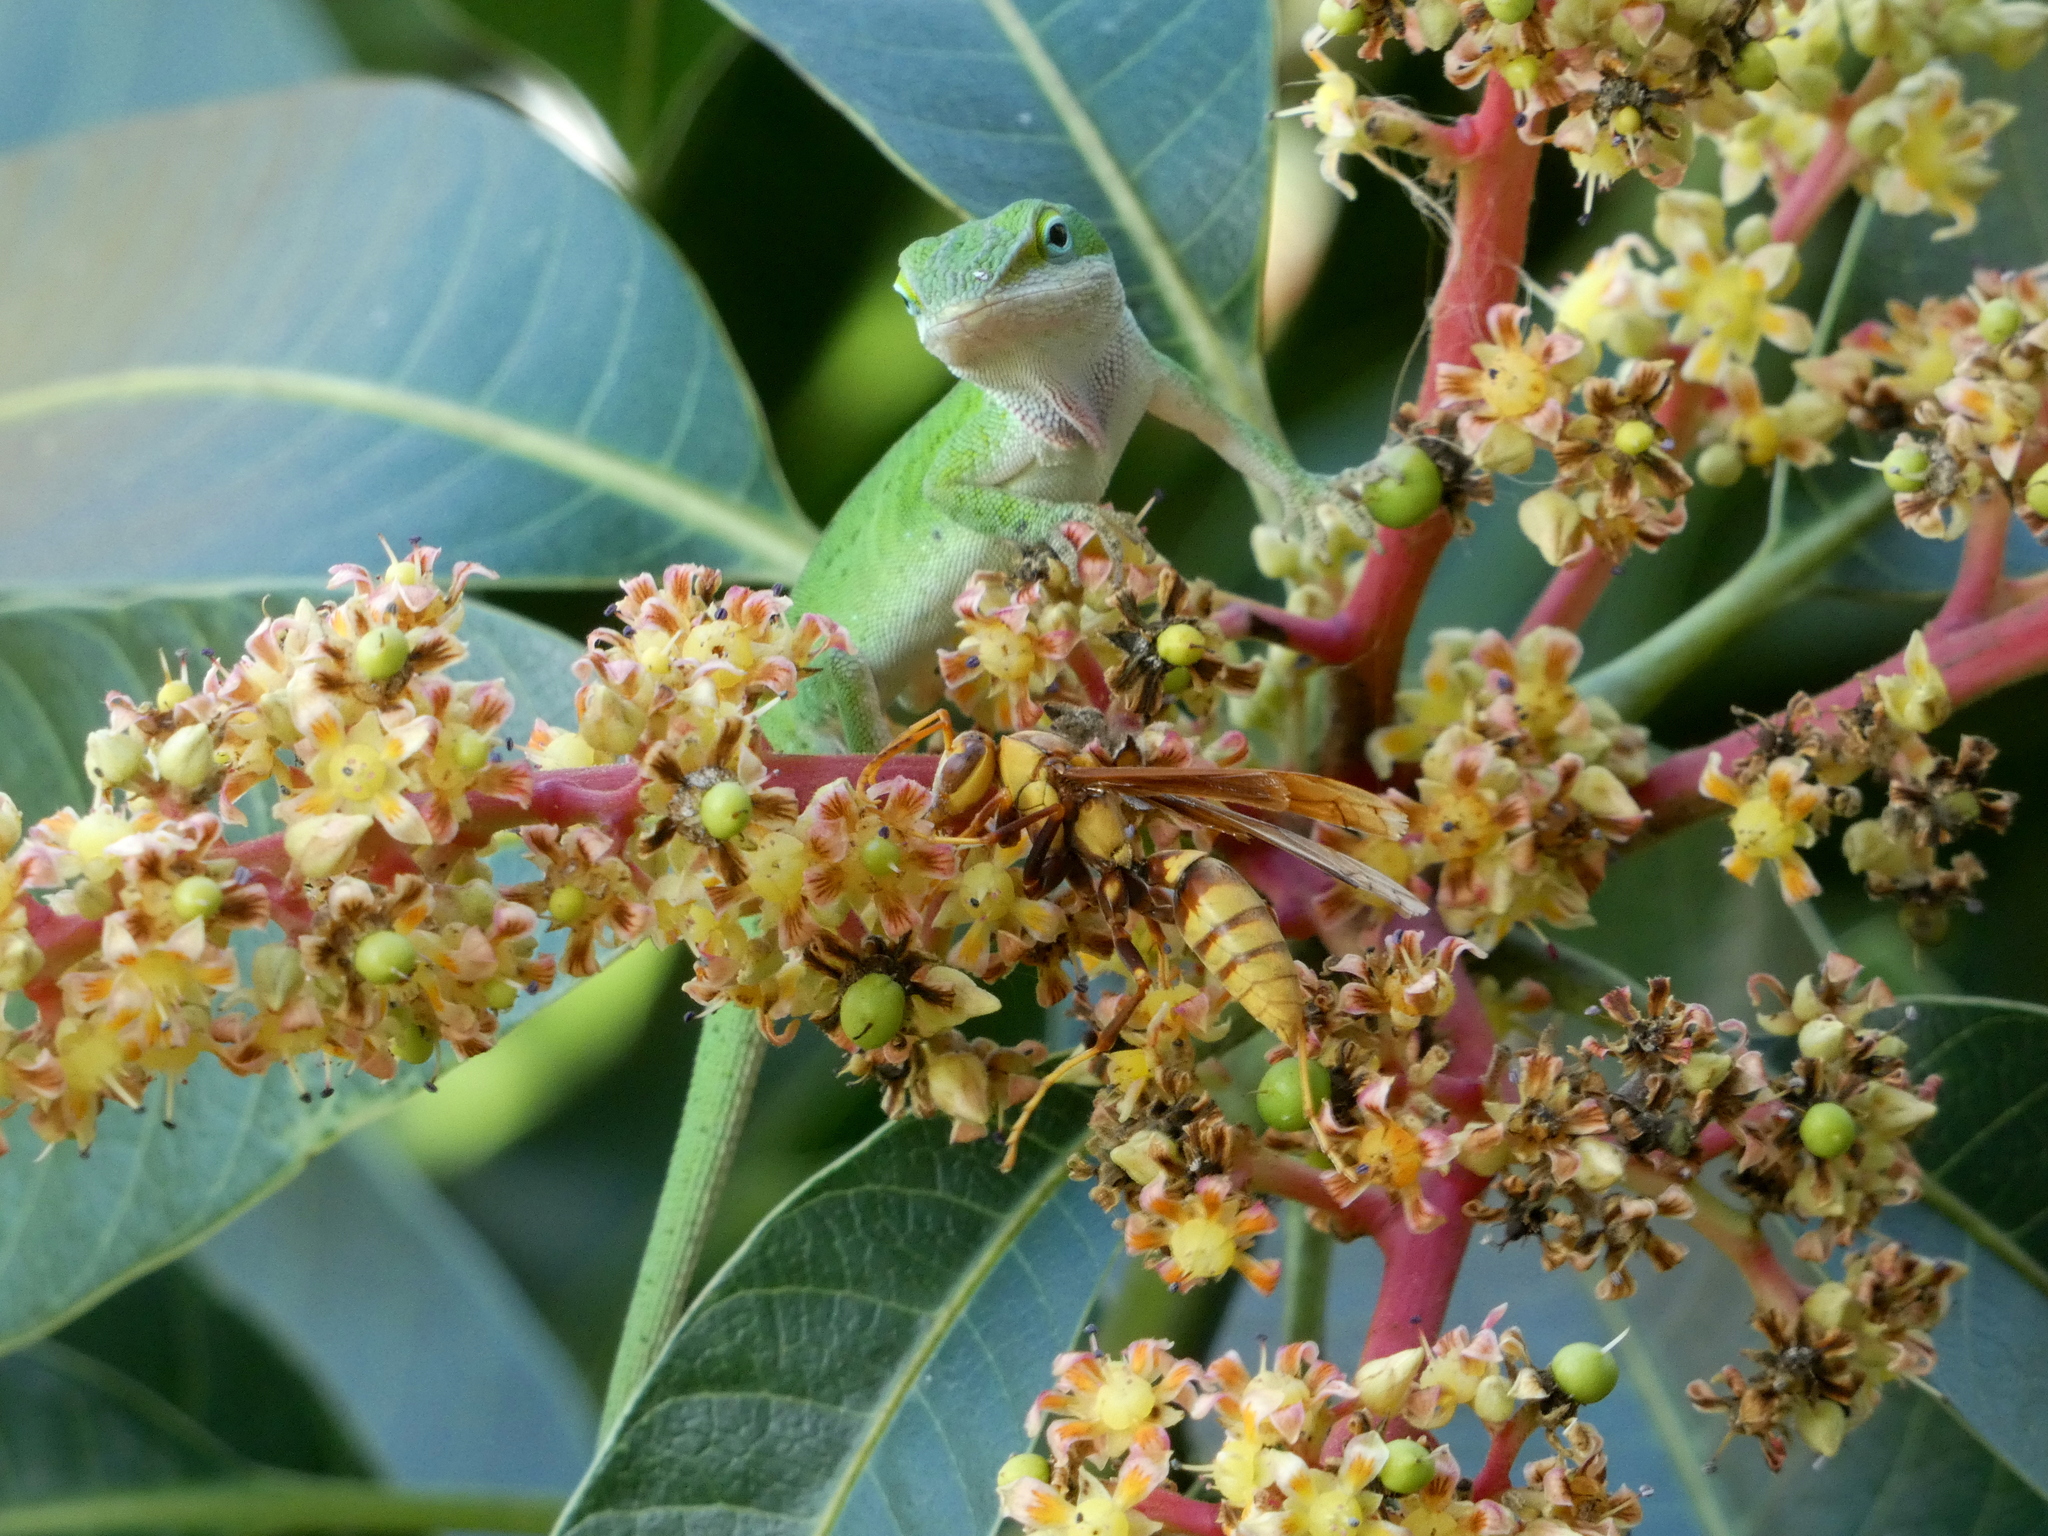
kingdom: Animalia
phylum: Arthropoda
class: Insecta
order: Hymenoptera
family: Eumenidae
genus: Polistes
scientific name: Polistes major
